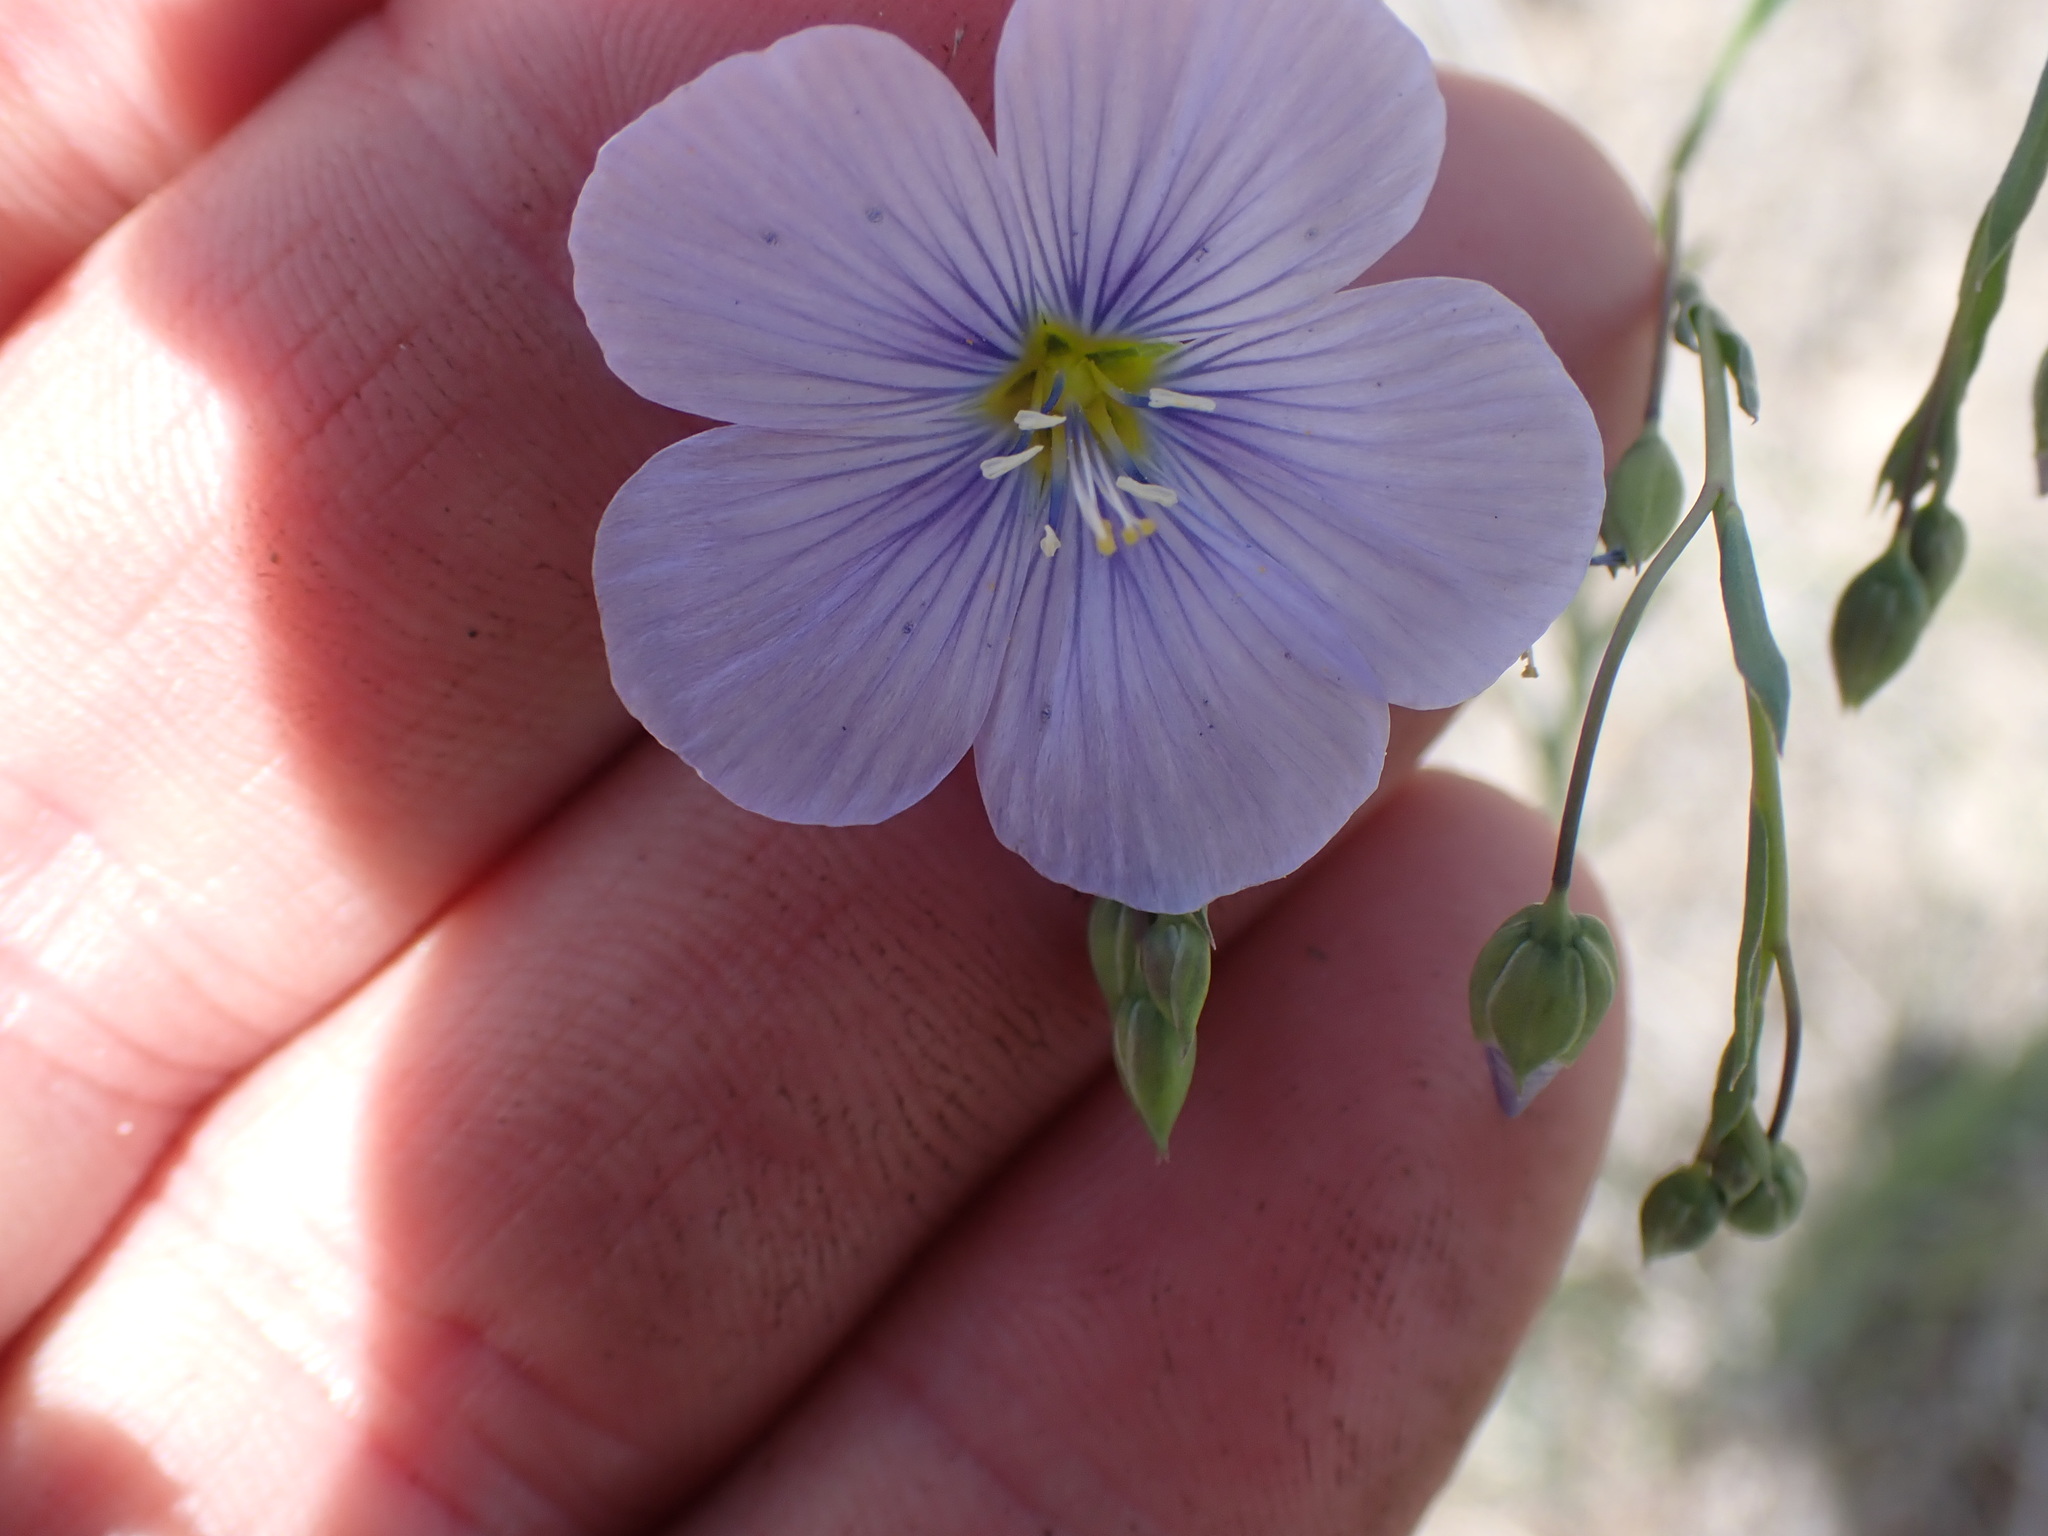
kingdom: Plantae
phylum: Tracheophyta
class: Magnoliopsida
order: Malpighiales
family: Linaceae
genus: Linum
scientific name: Linum lewisii
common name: Prairie flax
